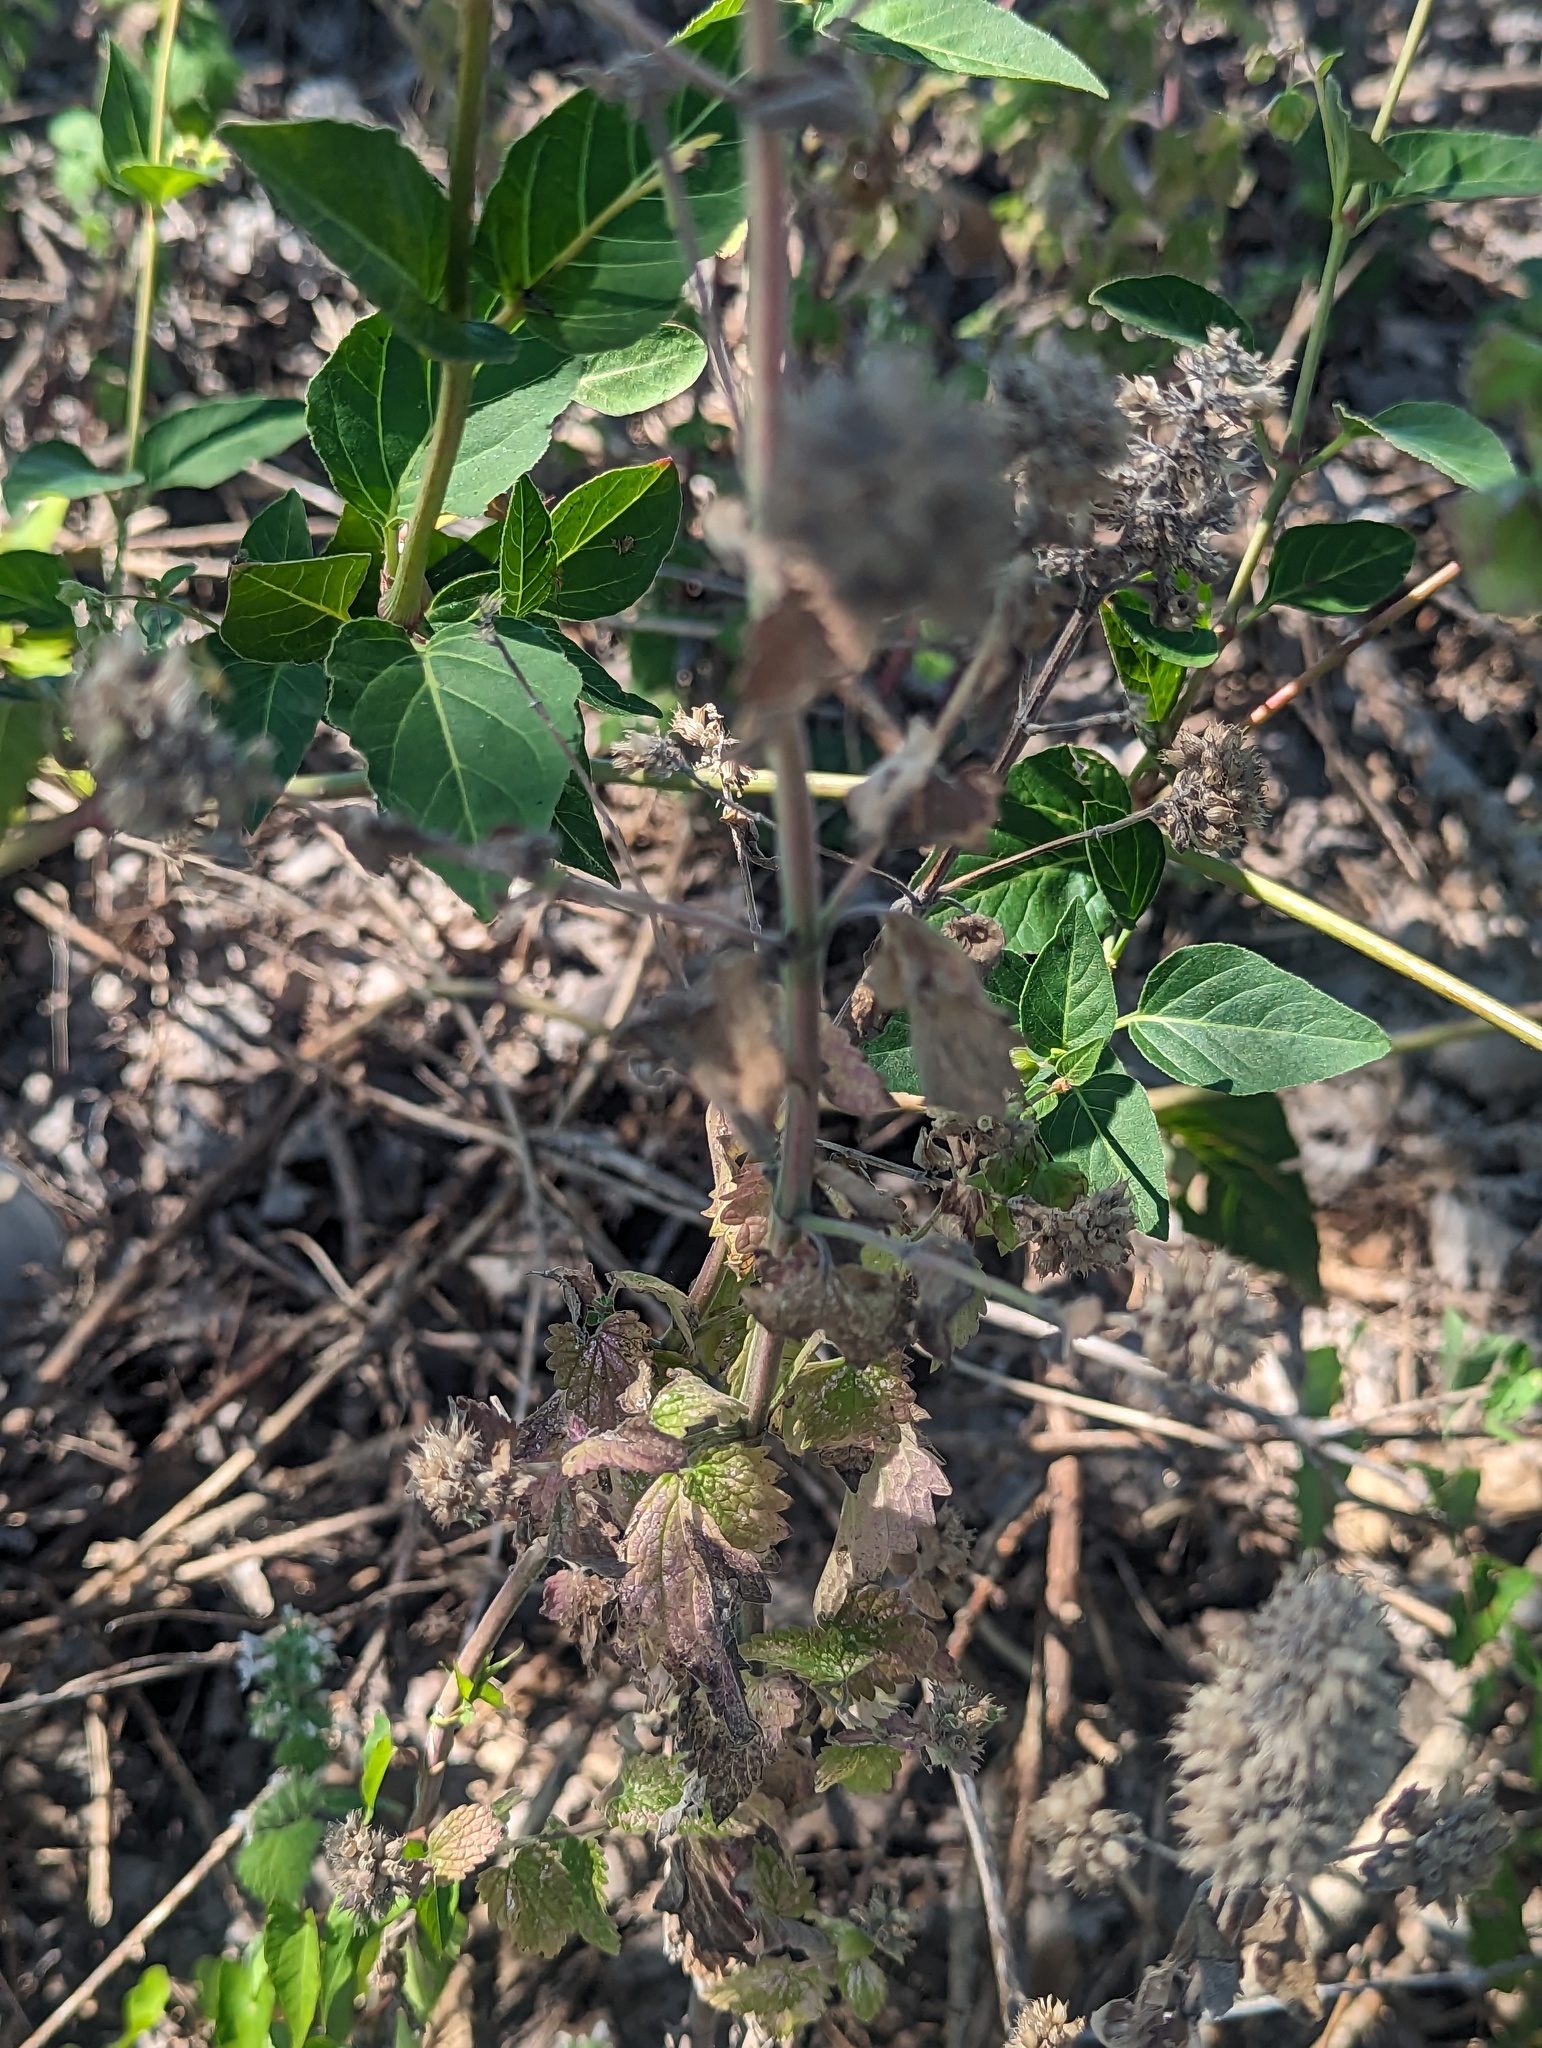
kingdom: Plantae
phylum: Tracheophyta
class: Magnoliopsida
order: Caryophyllales
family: Nyctaginaceae
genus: Mirabilis
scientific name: Mirabilis nyctaginea
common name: Umbrella wort
